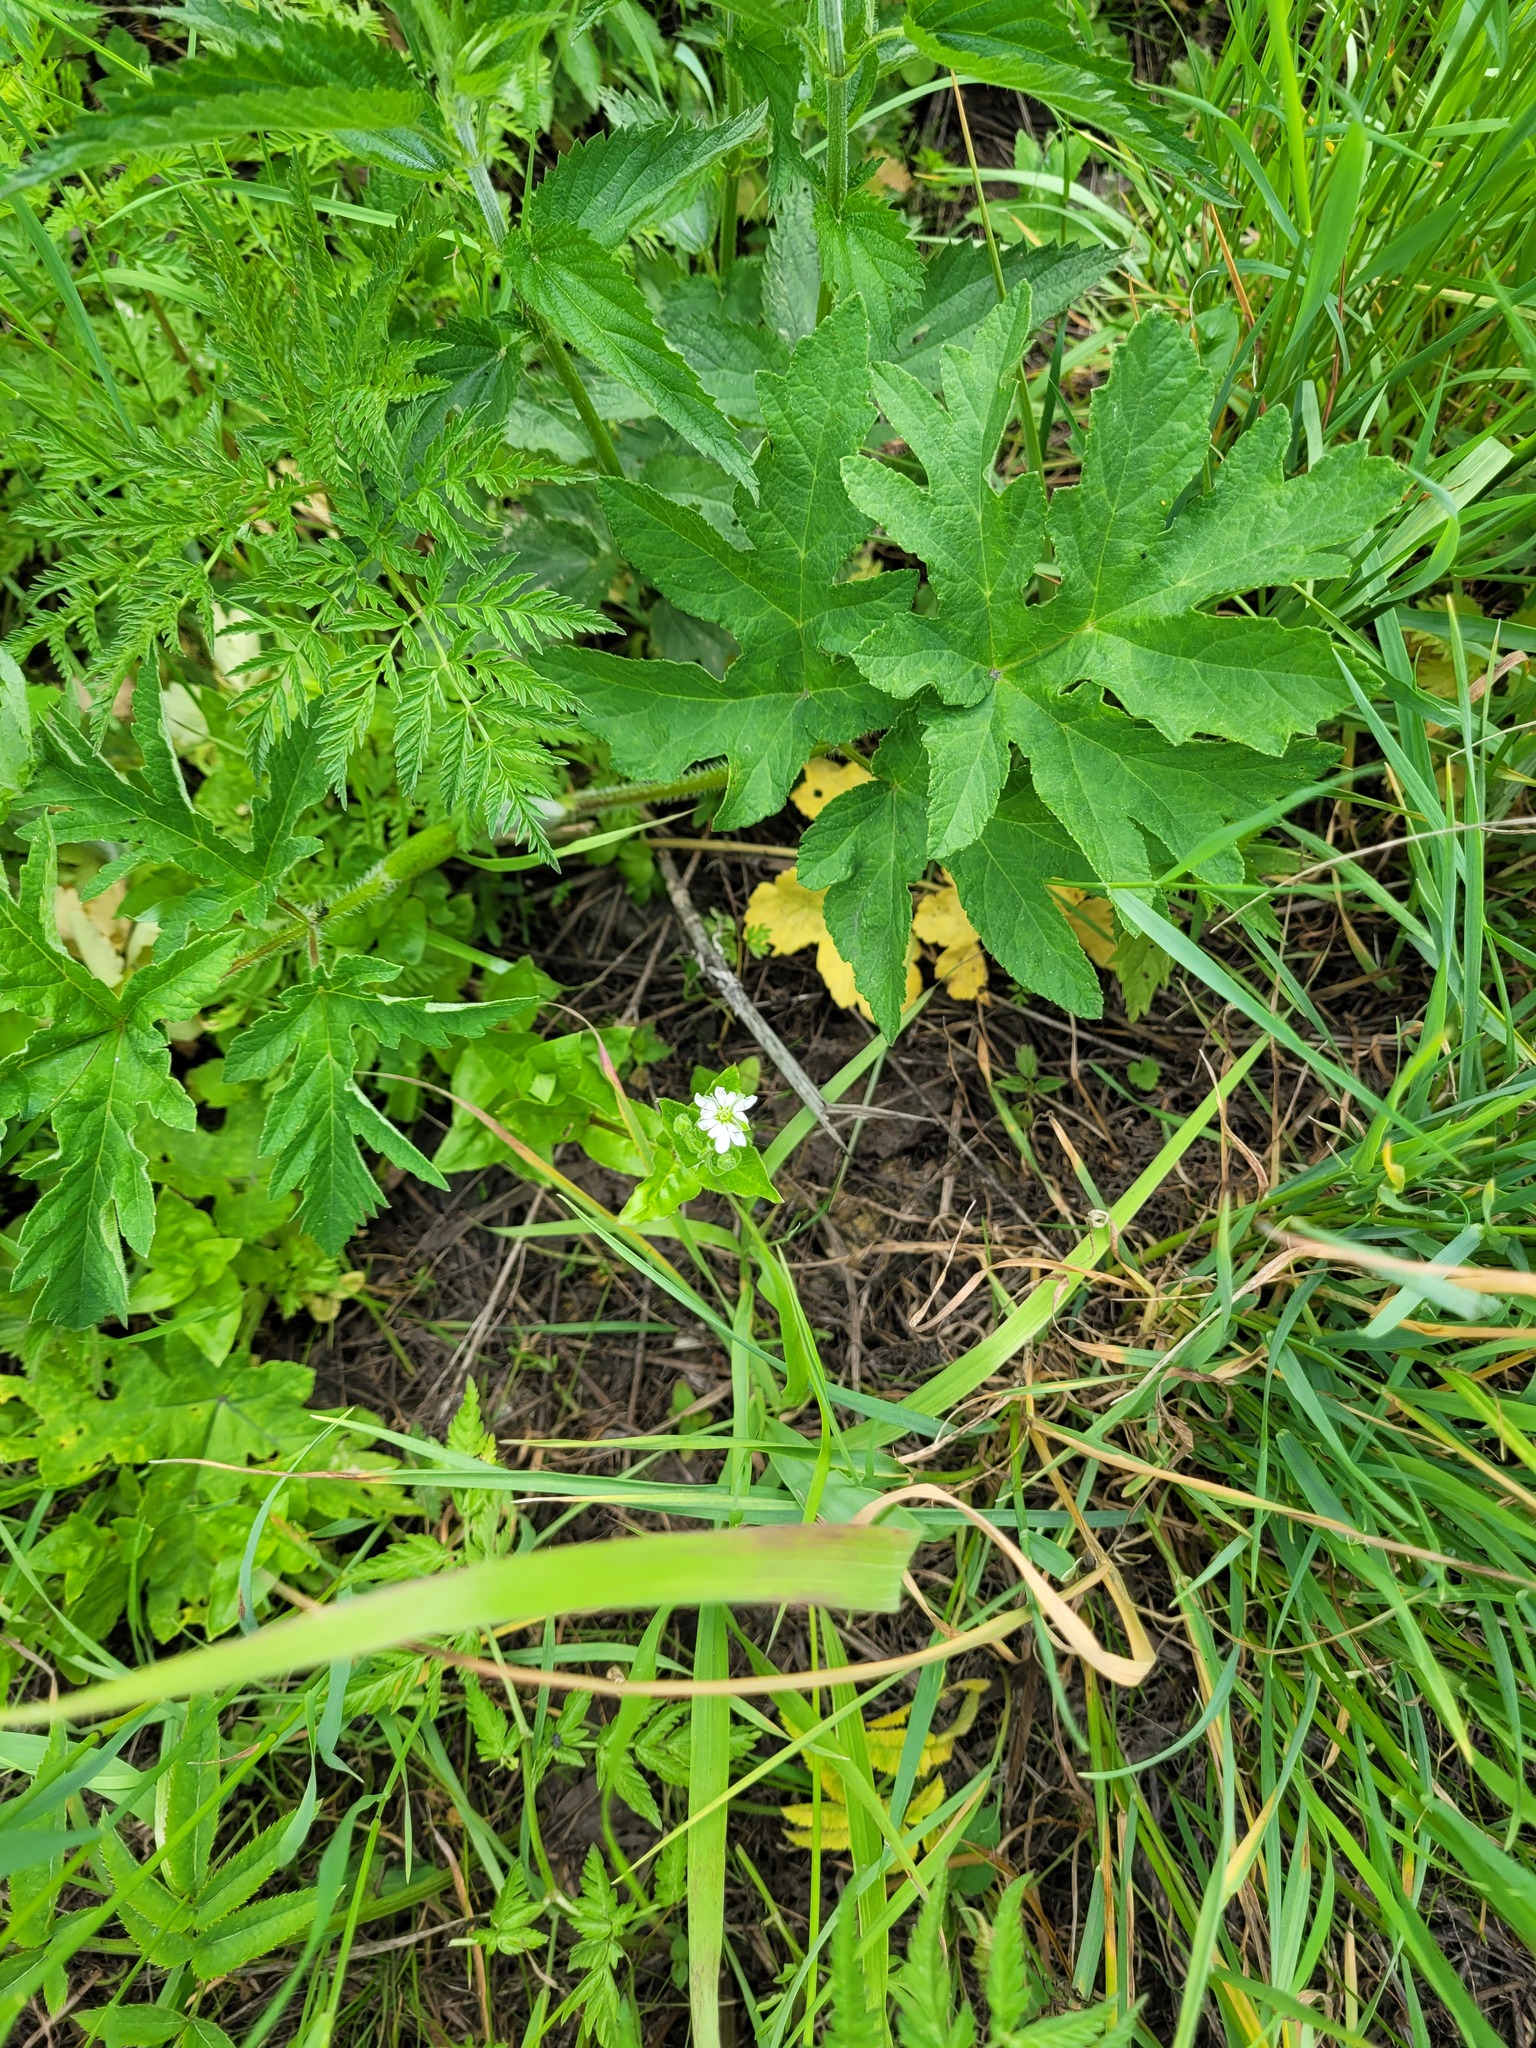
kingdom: Plantae
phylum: Tracheophyta
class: Magnoliopsida
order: Caryophyllales
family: Caryophyllaceae
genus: Stellaria
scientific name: Stellaria aquatica
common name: Water chickweed
